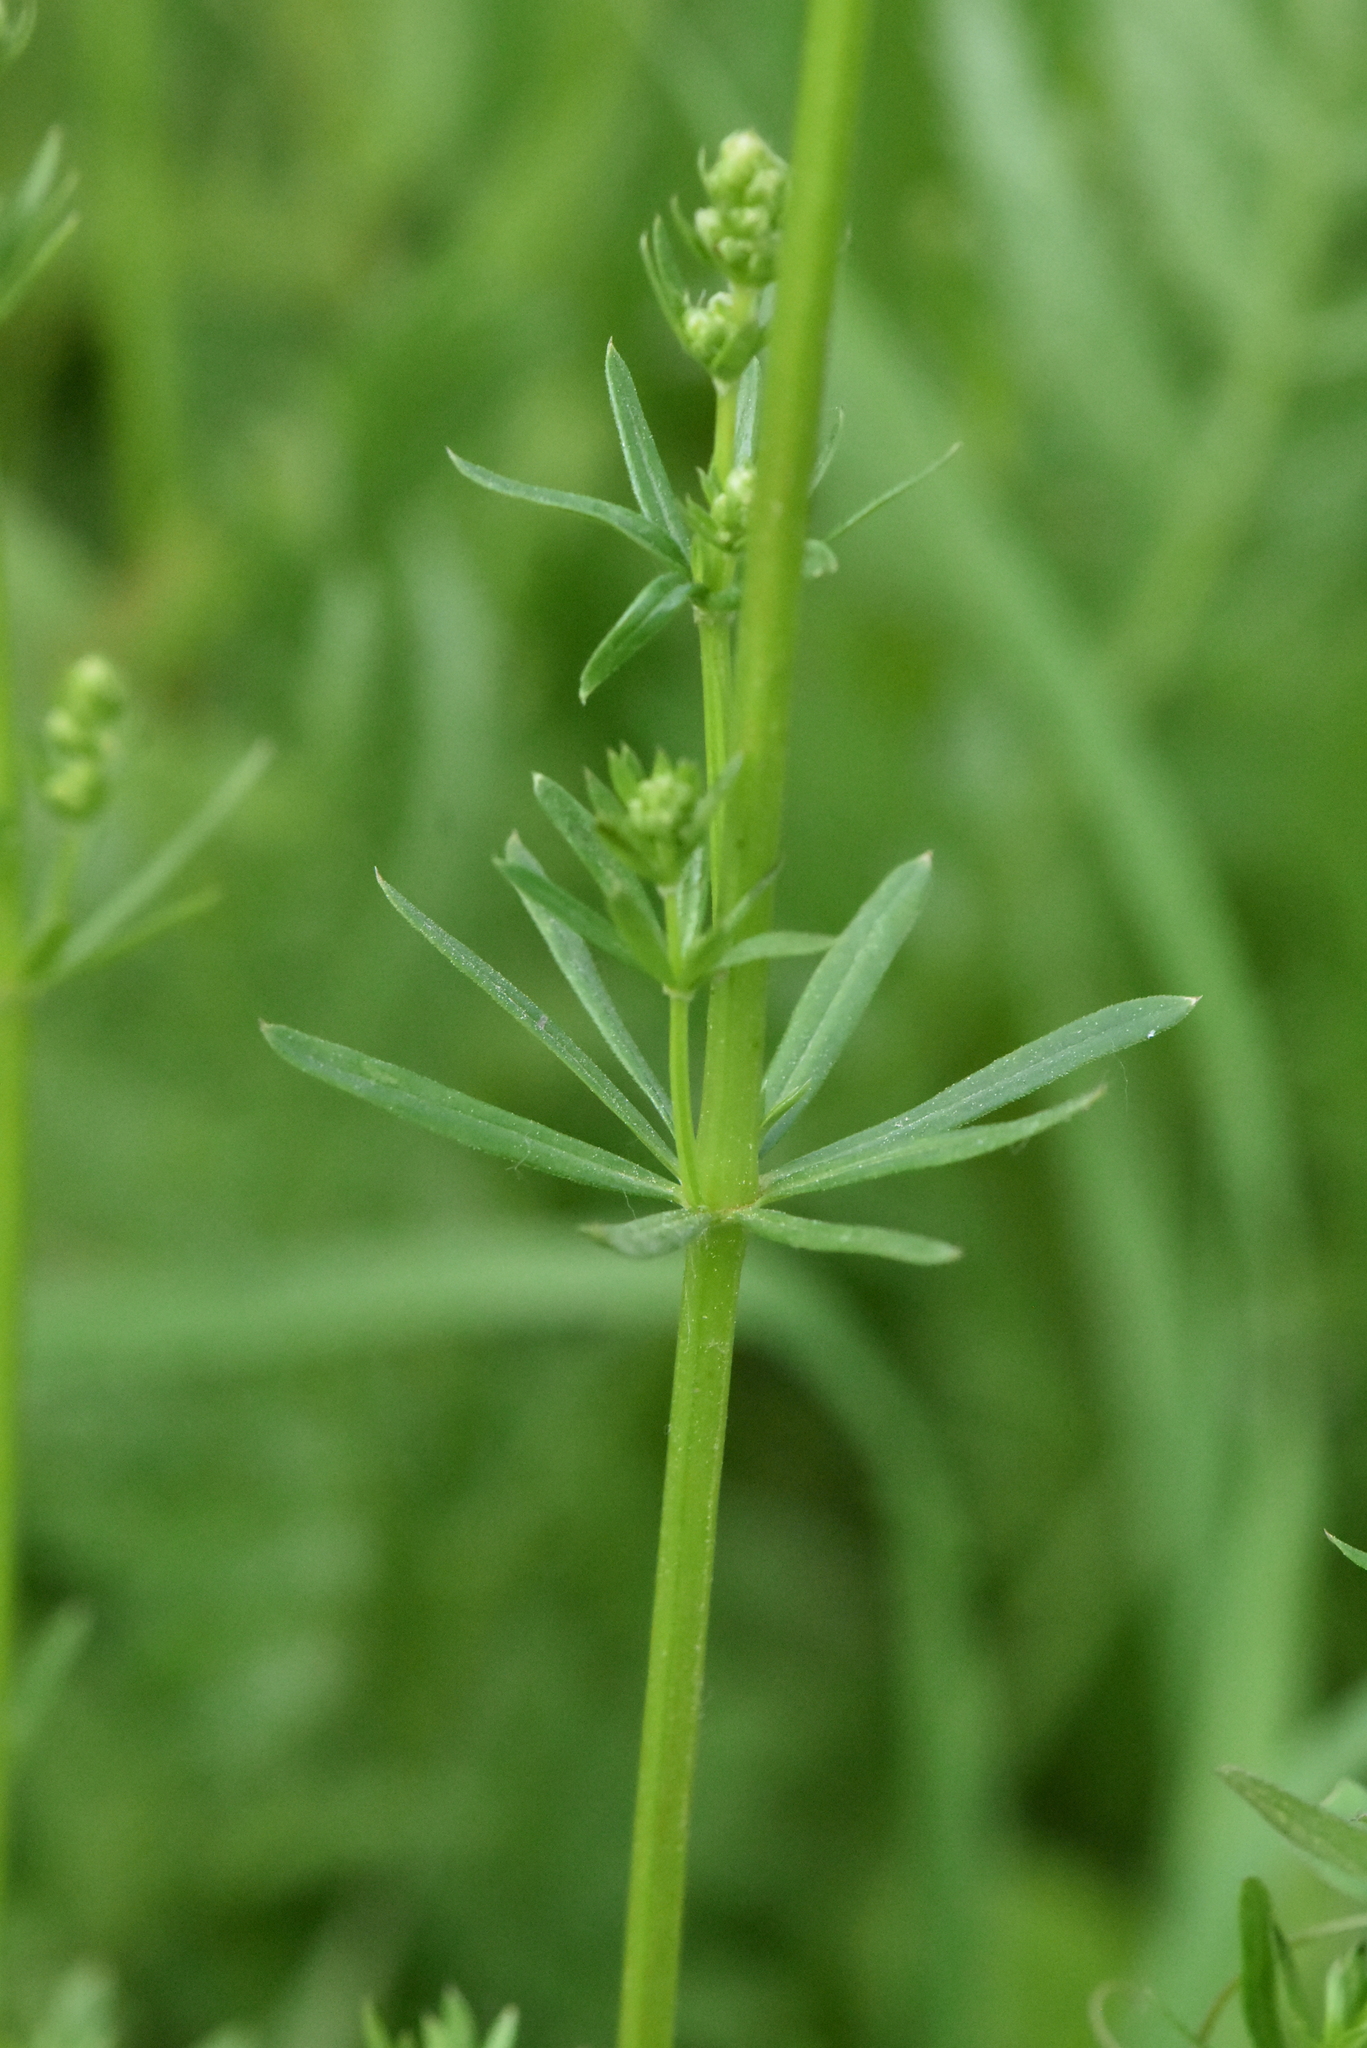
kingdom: Plantae
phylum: Tracheophyta
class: Magnoliopsida
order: Gentianales
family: Rubiaceae
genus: Galium
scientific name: Galium mollugo
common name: Hedge bedstraw
